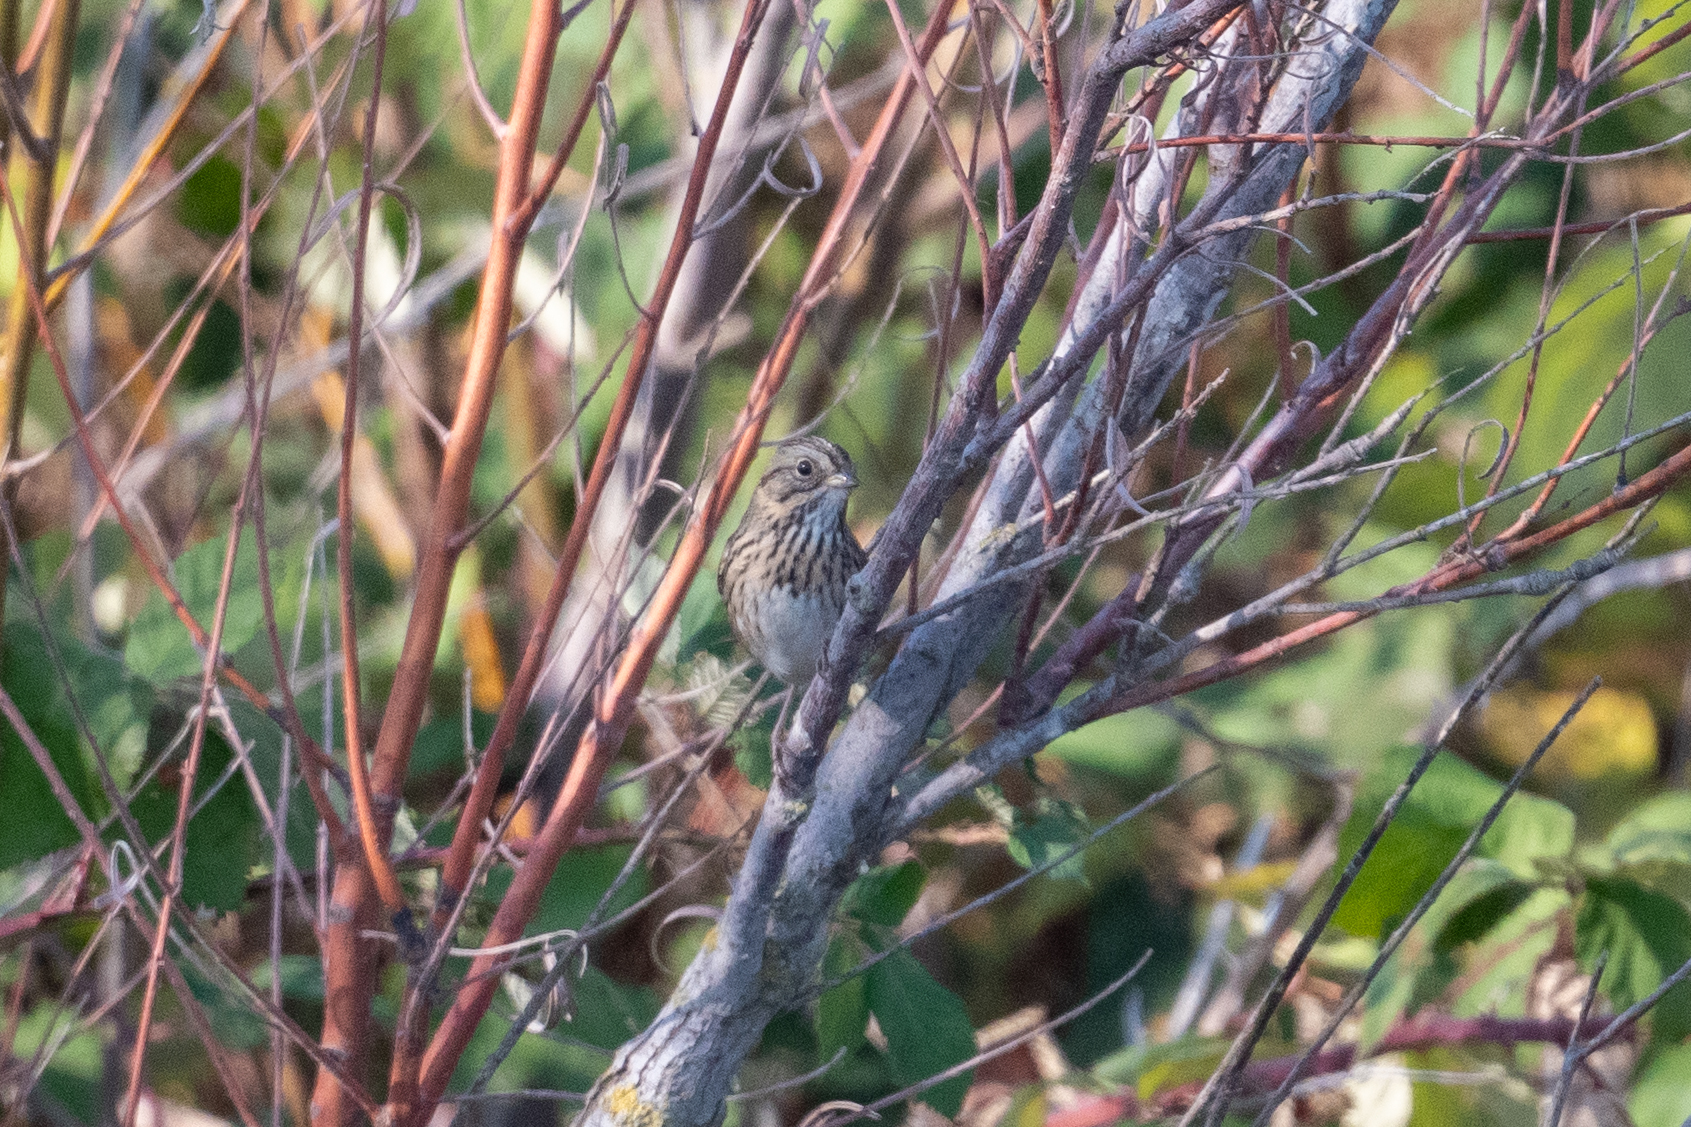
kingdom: Animalia
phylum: Chordata
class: Aves
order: Passeriformes
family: Passerellidae
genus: Melospiza
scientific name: Melospiza lincolnii
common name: Lincoln's sparrow
